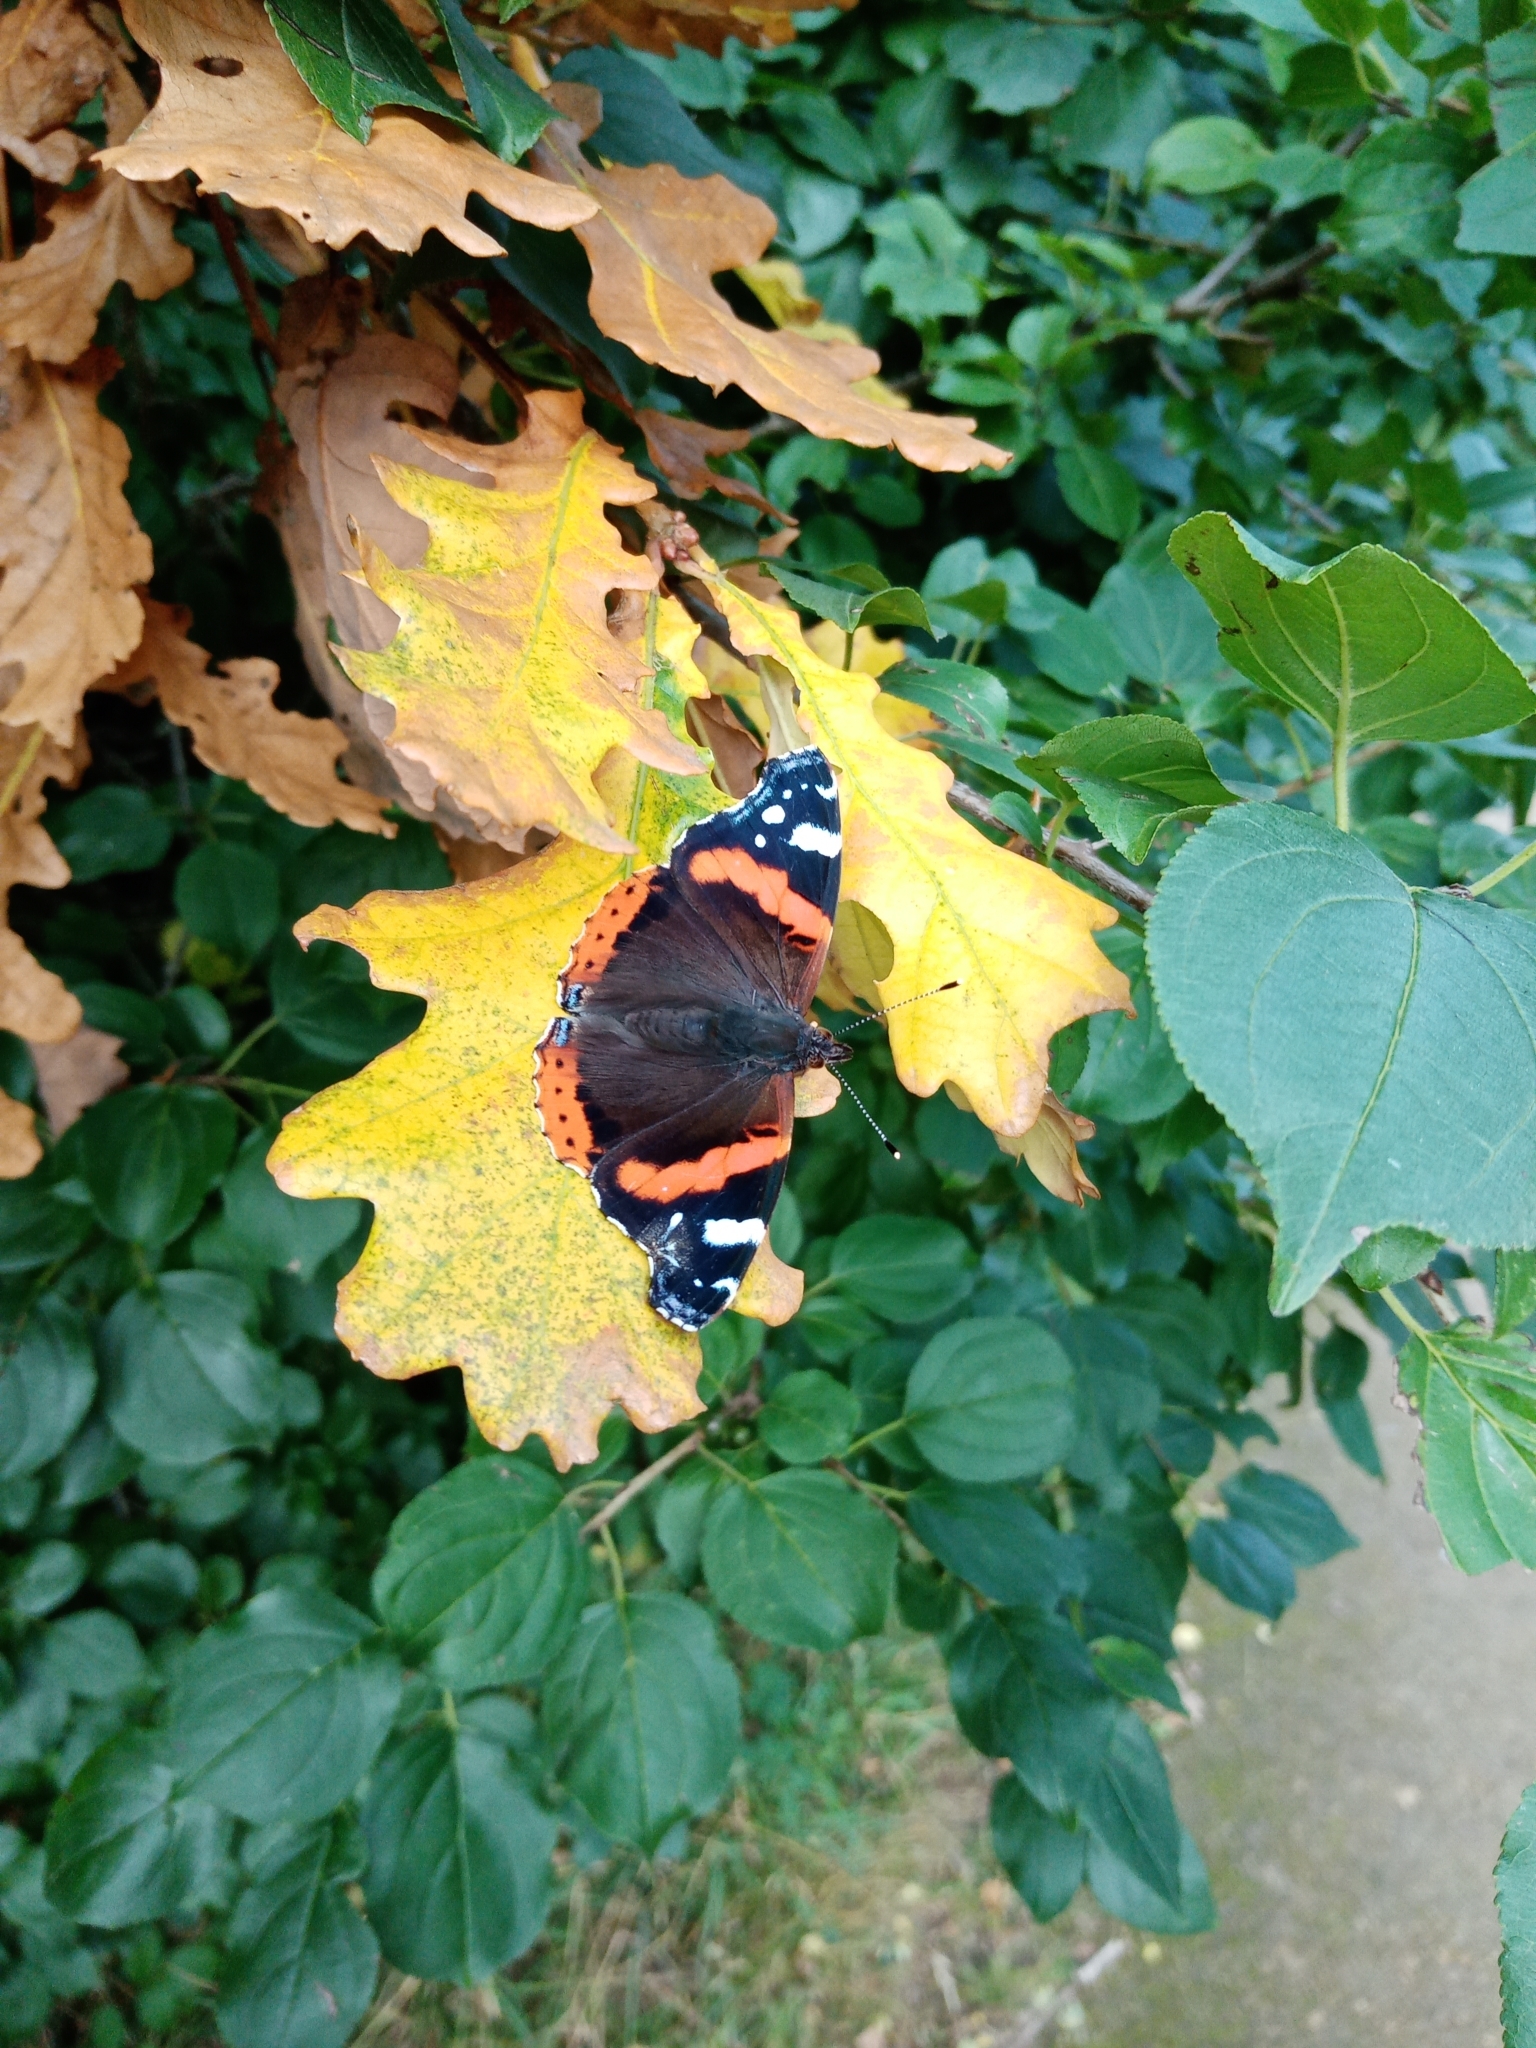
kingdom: Animalia
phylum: Arthropoda
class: Insecta
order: Lepidoptera
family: Nymphalidae
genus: Vanessa
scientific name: Vanessa atalanta
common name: Red admiral
